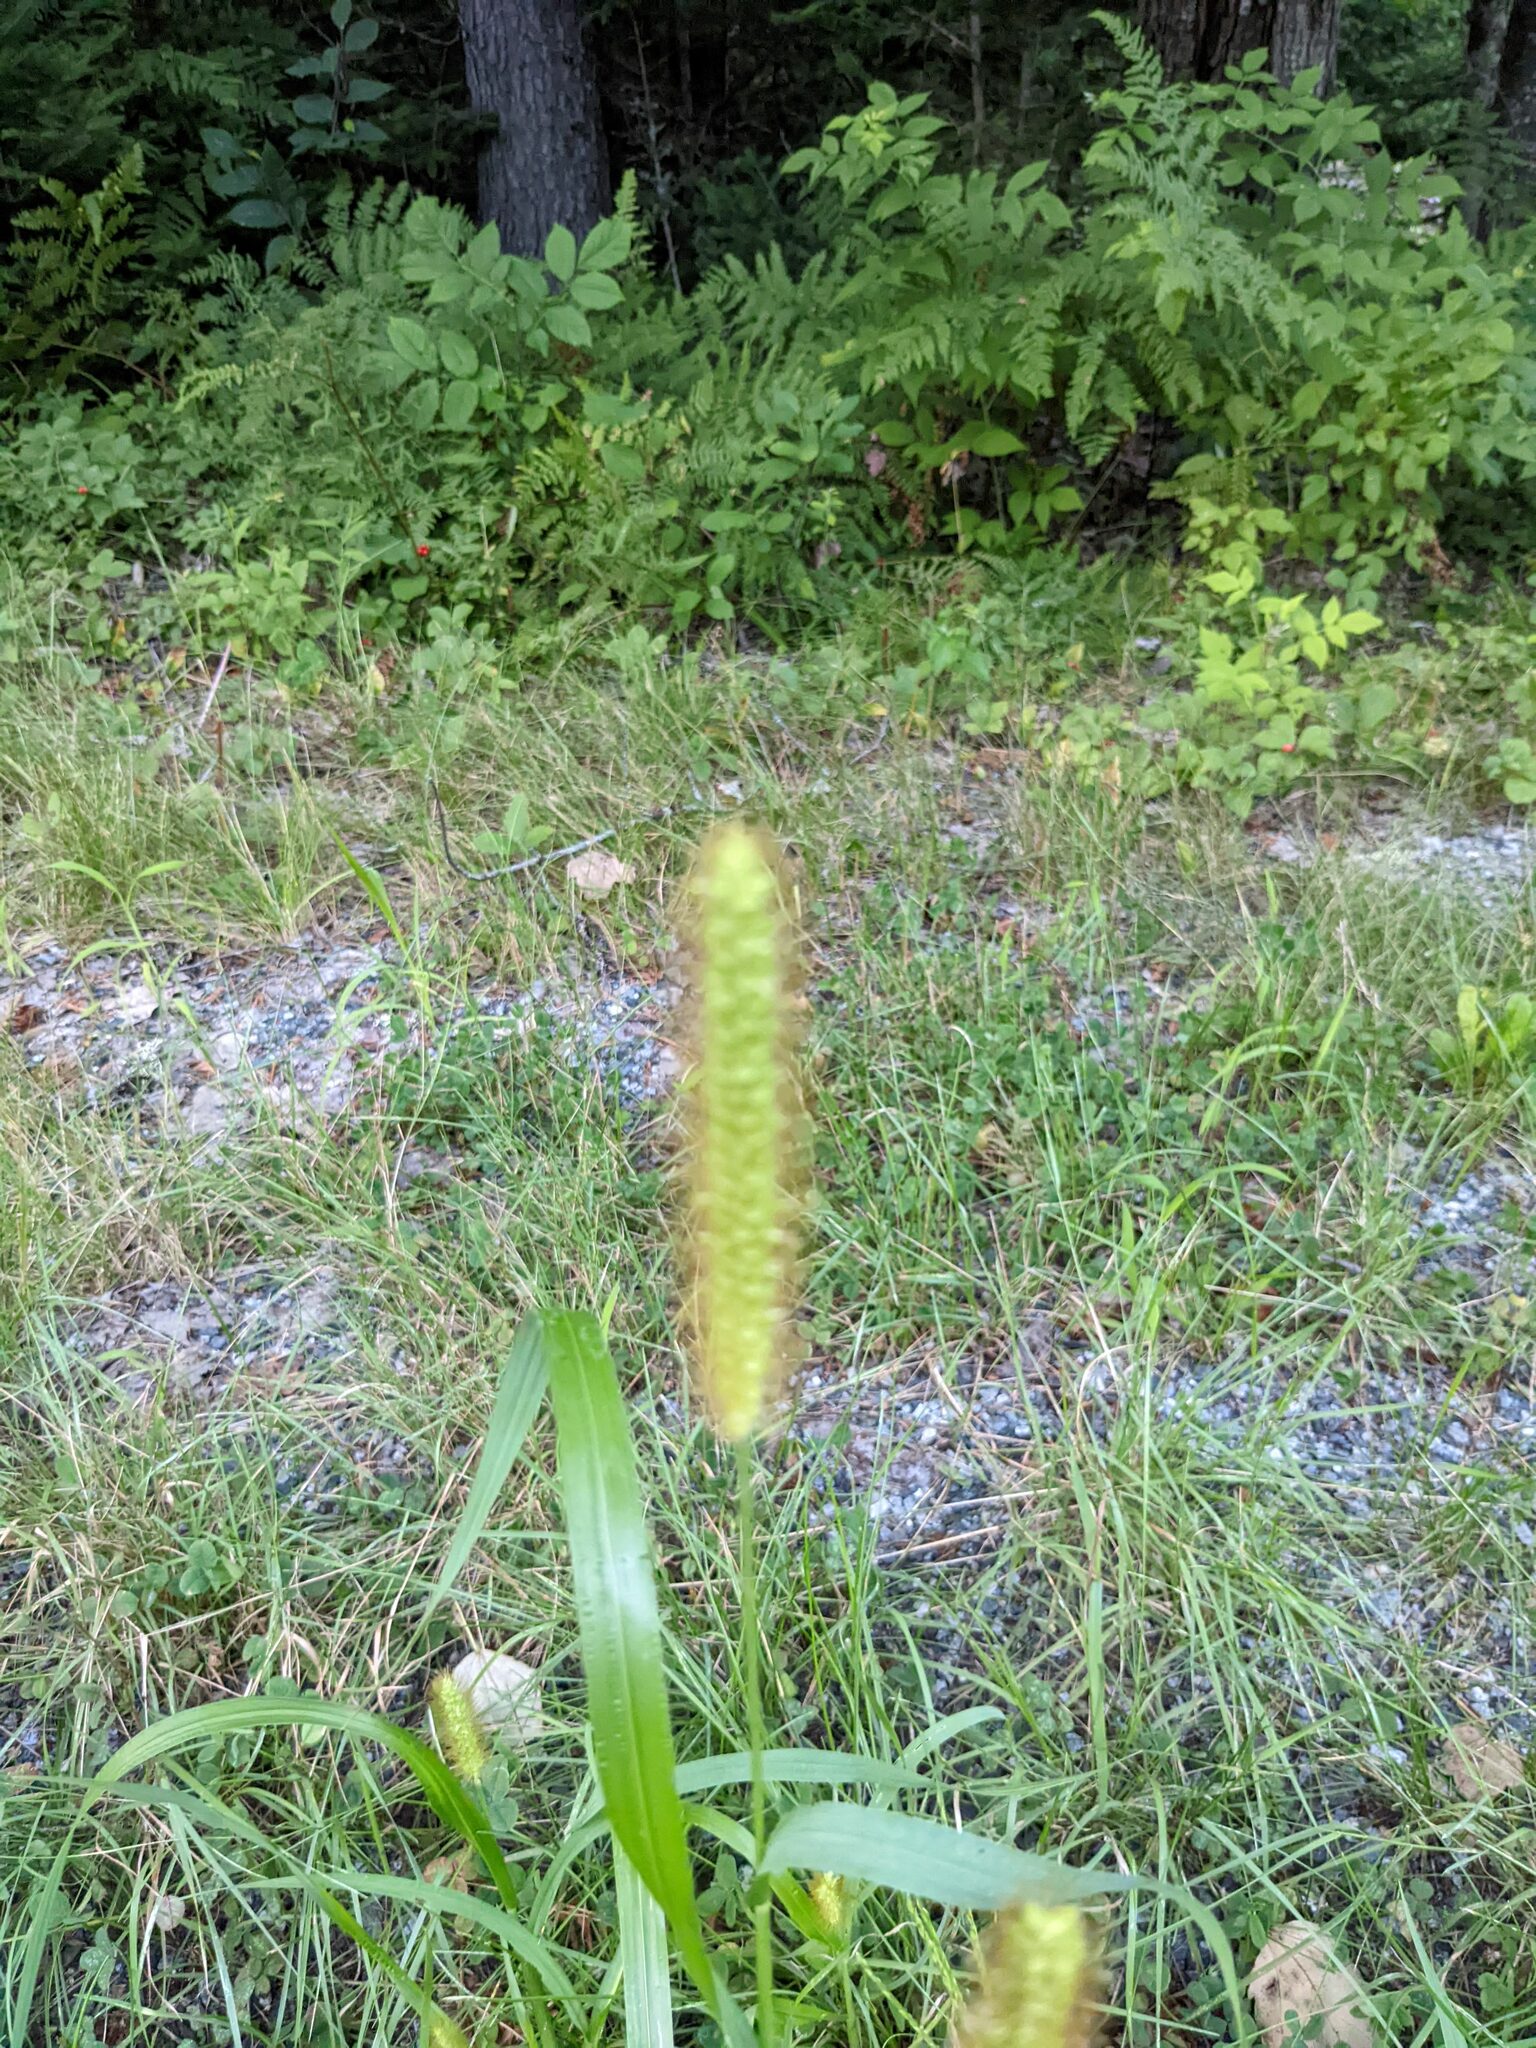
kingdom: Plantae
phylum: Tracheophyta
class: Liliopsida
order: Poales
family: Poaceae
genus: Setaria
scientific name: Setaria pumila
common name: Yellow bristle-grass
